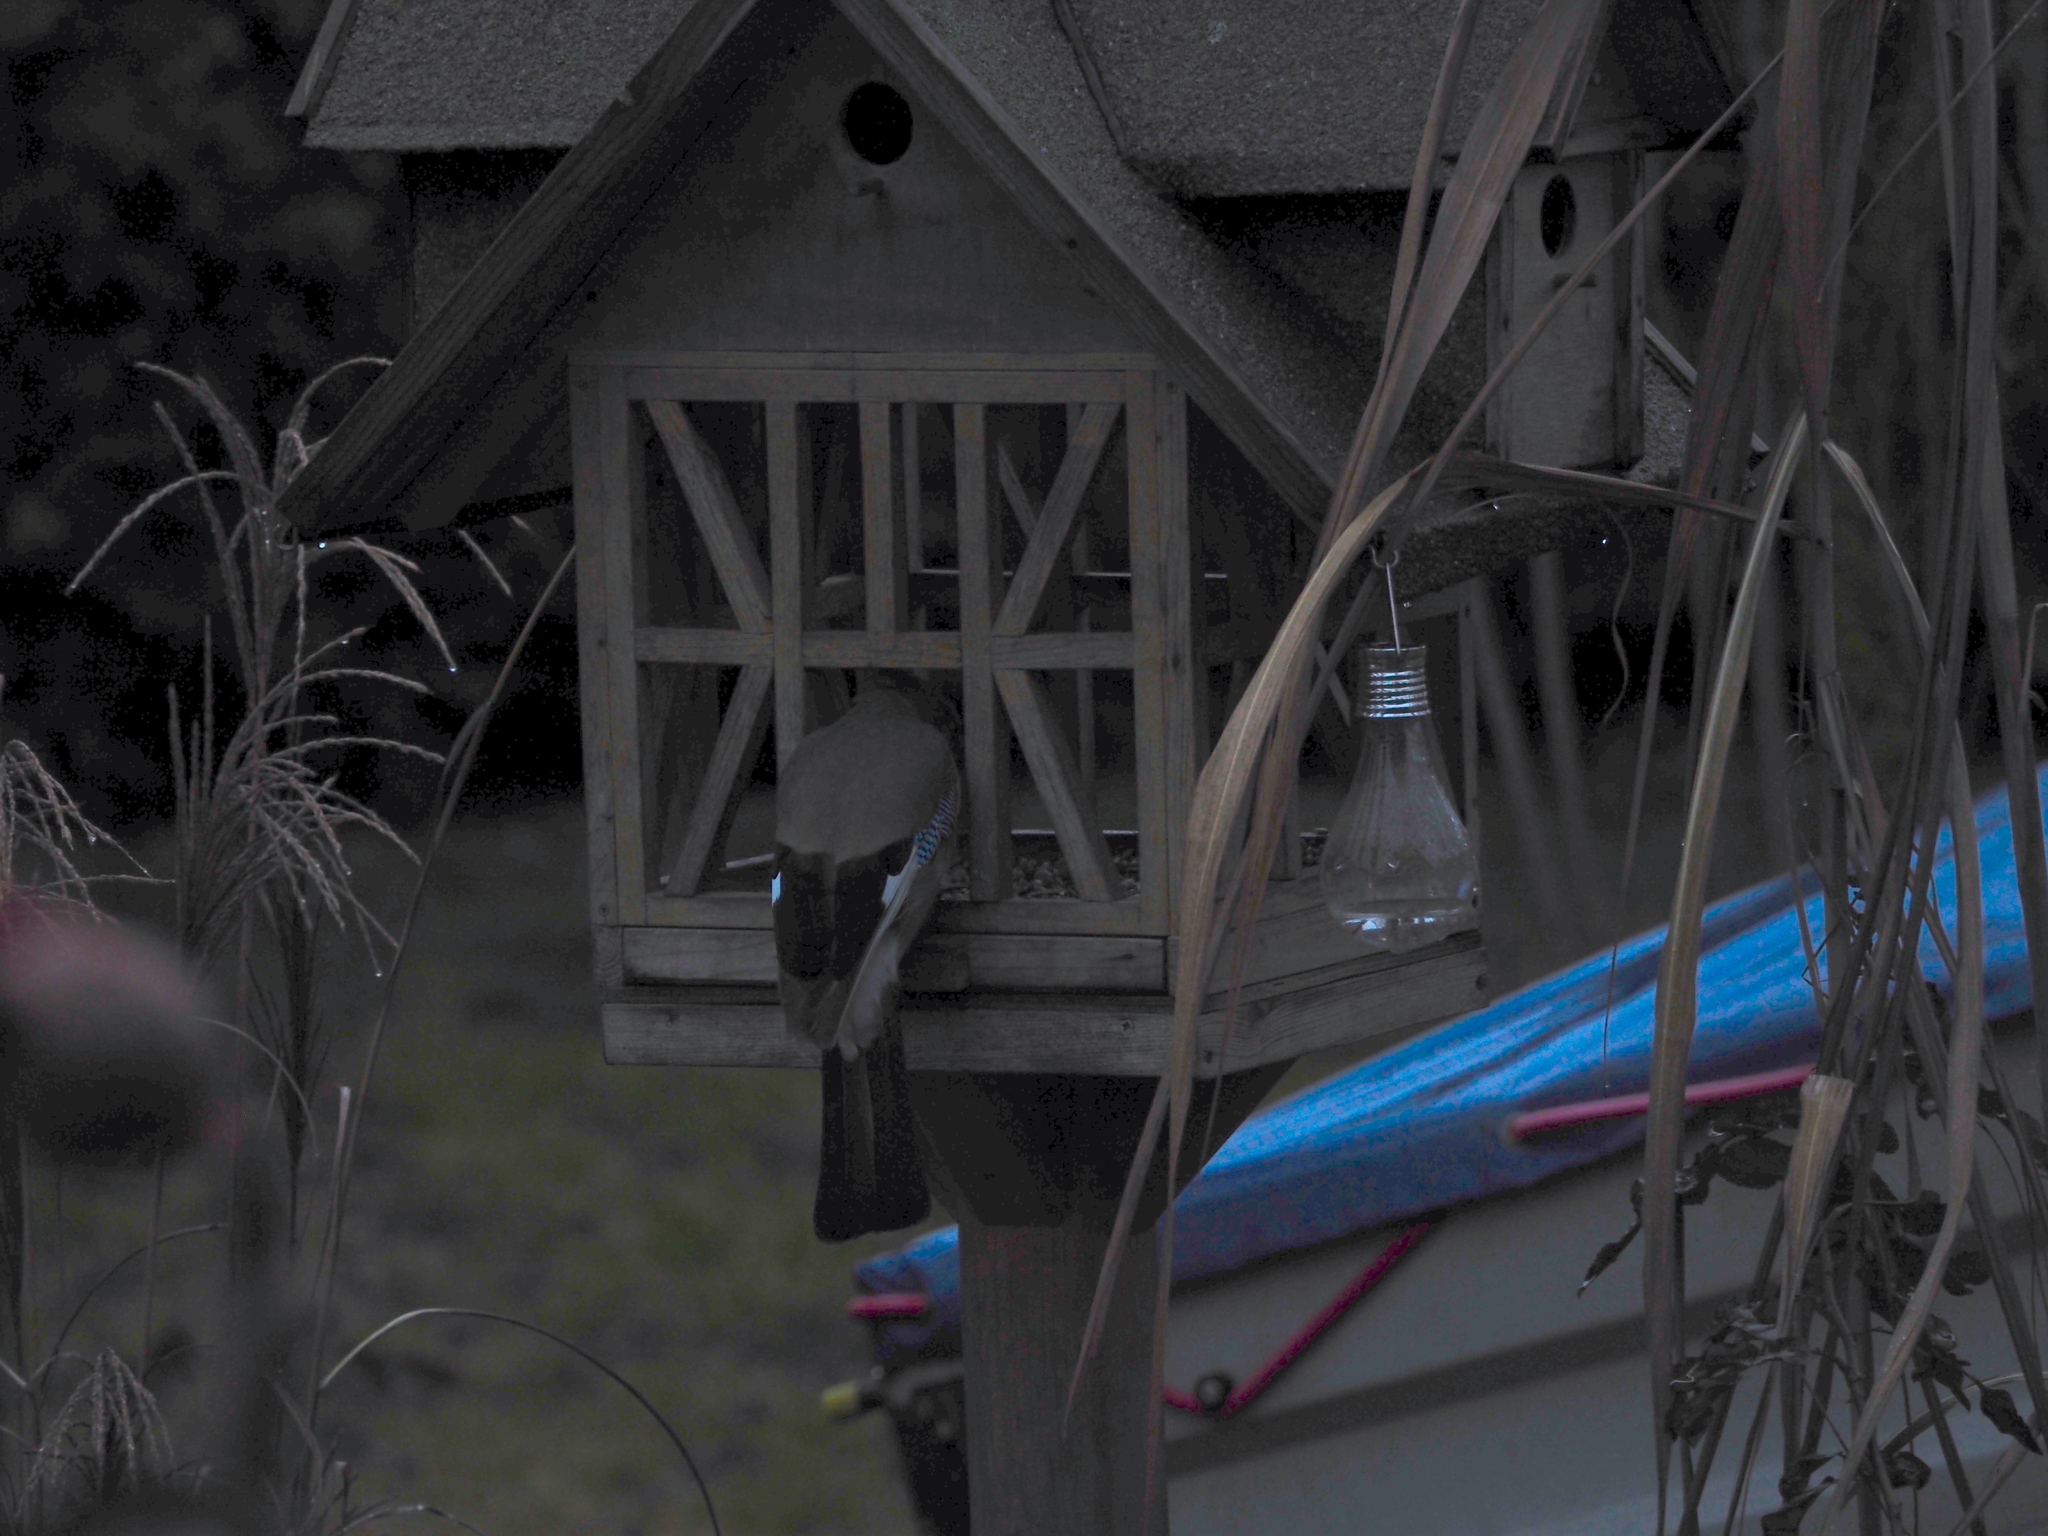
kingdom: Animalia
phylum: Chordata
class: Aves
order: Passeriformes
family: Corvidae
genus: Garrulus
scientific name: Garrulus glandarius
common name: Eurasian jay
